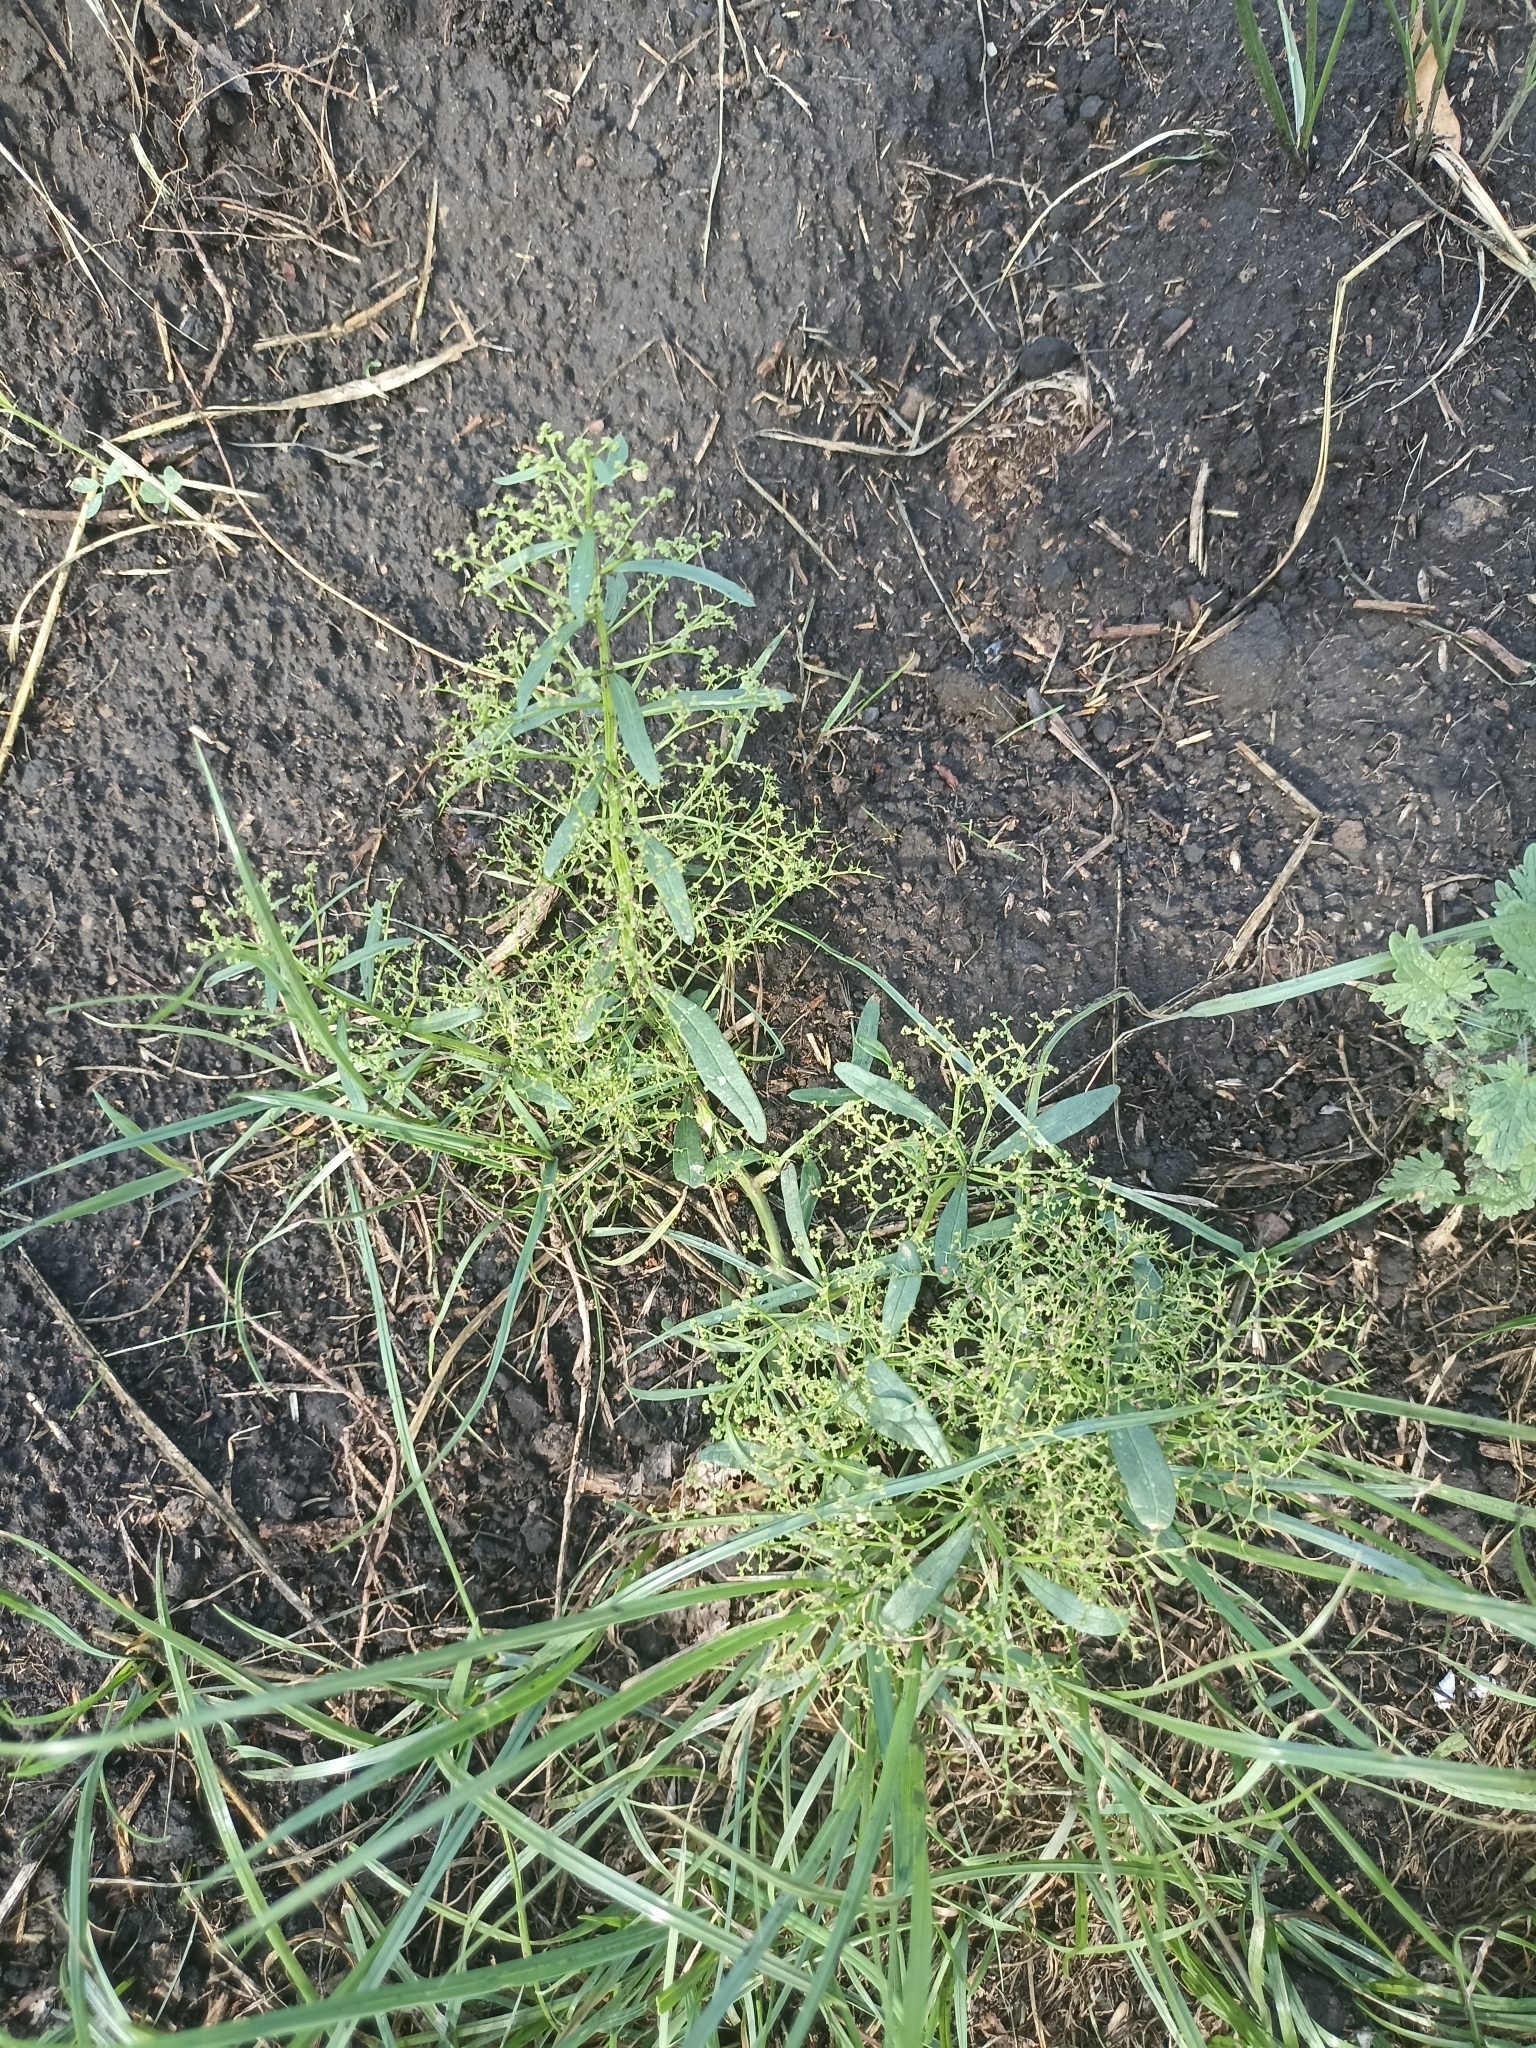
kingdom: Plantae
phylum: Tracheophyta
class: Magnoliopsida
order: Caryophyllales
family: Amaranthaceae
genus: Teloxys
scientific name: Teloxys aristata
